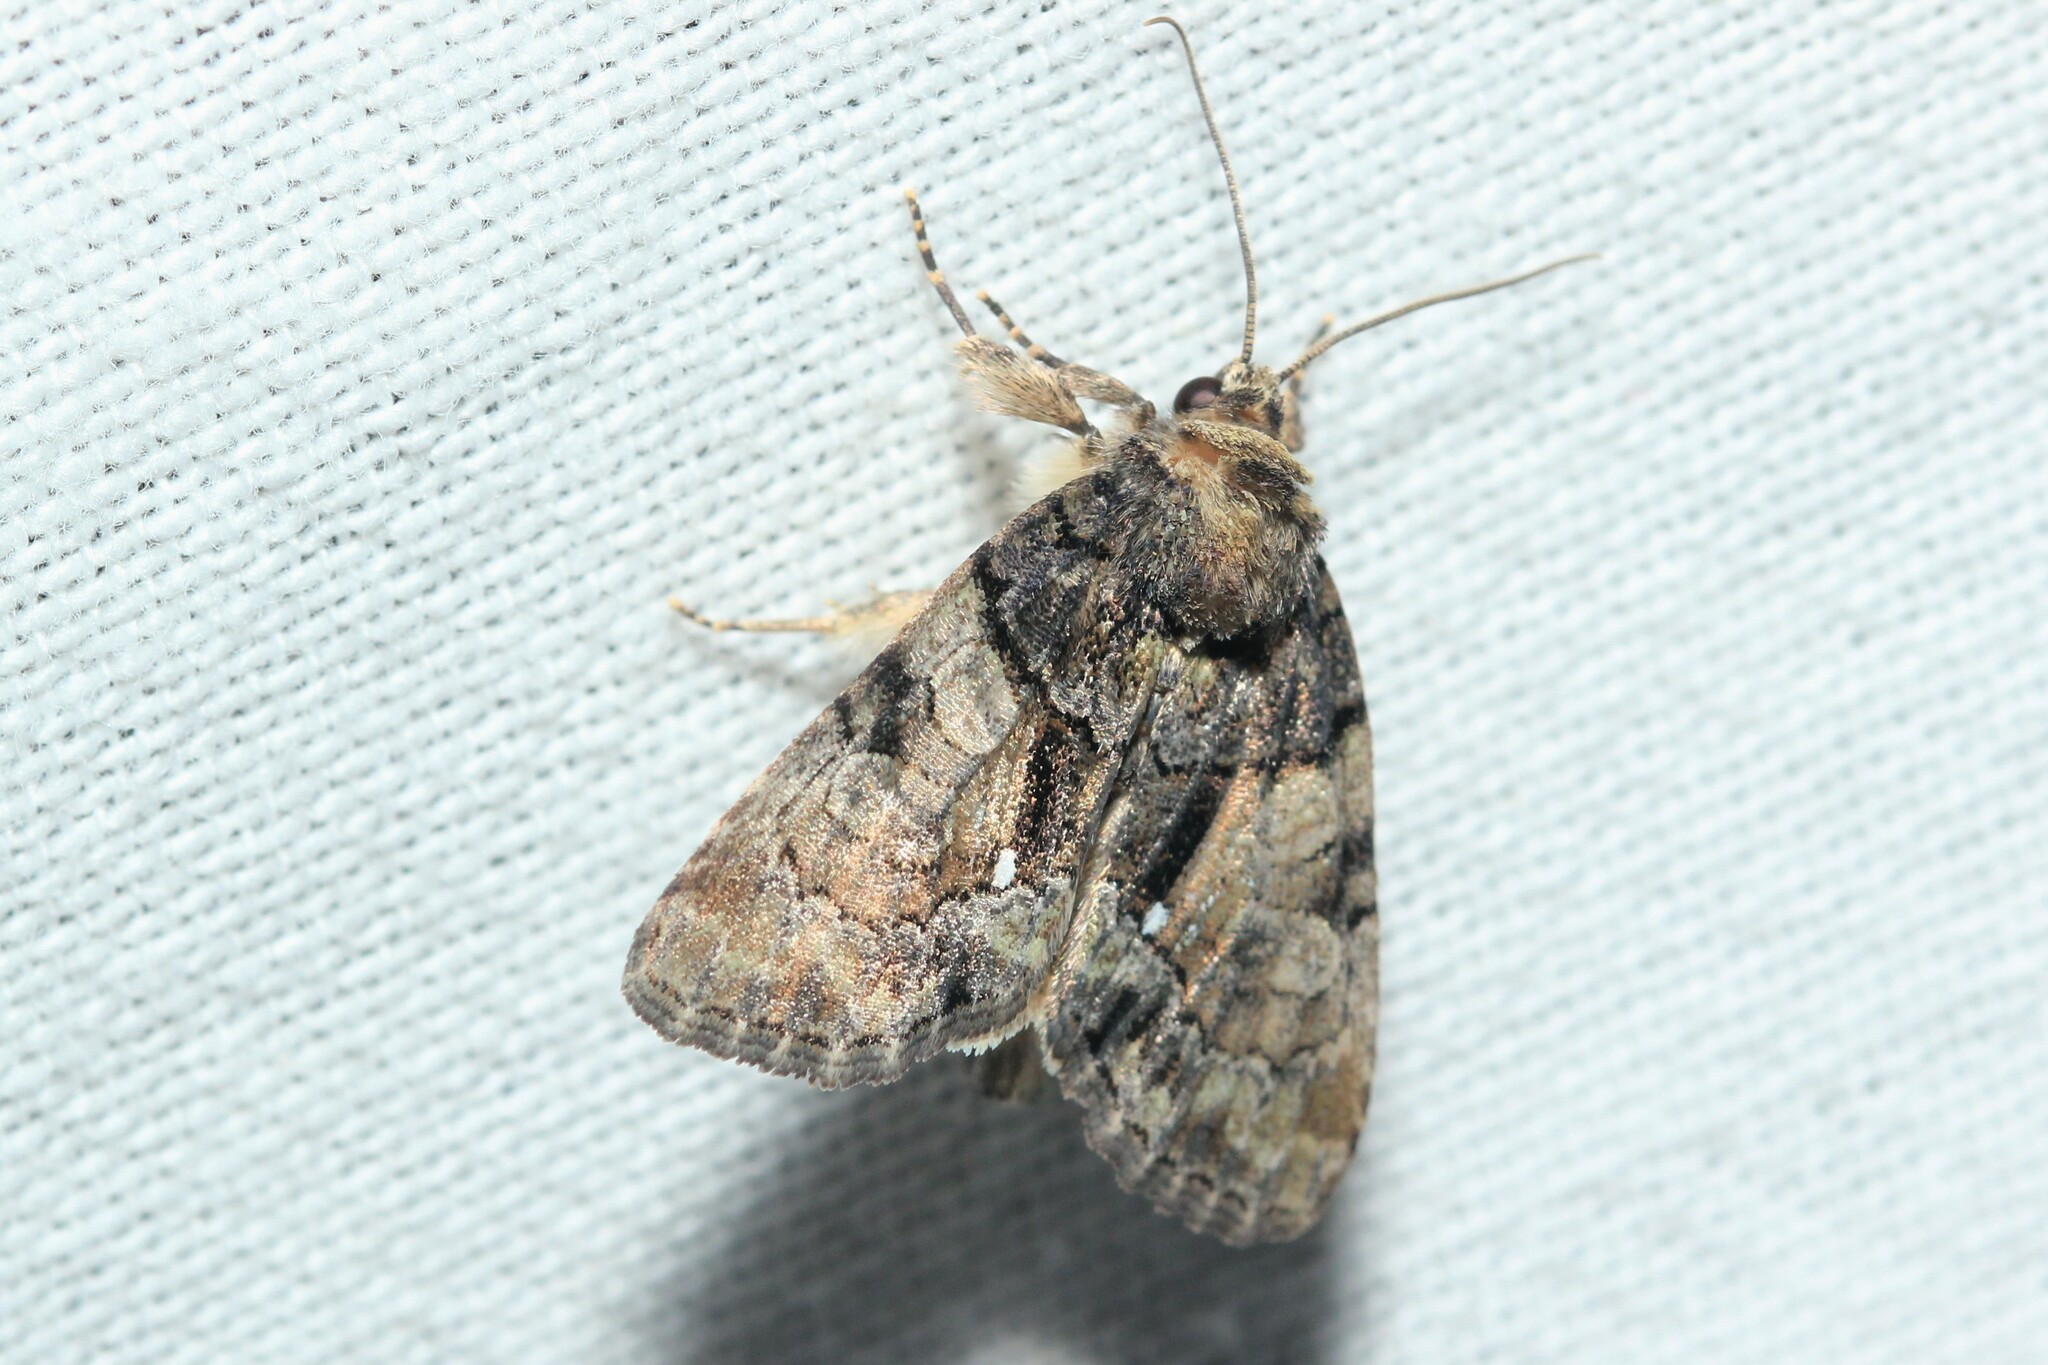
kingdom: Animalia
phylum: Arthropoda
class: Insecta
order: Lepidoptera
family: Noctuidae
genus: Chytonix
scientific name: Chytonix palliatricula
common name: Cloaked marvel
